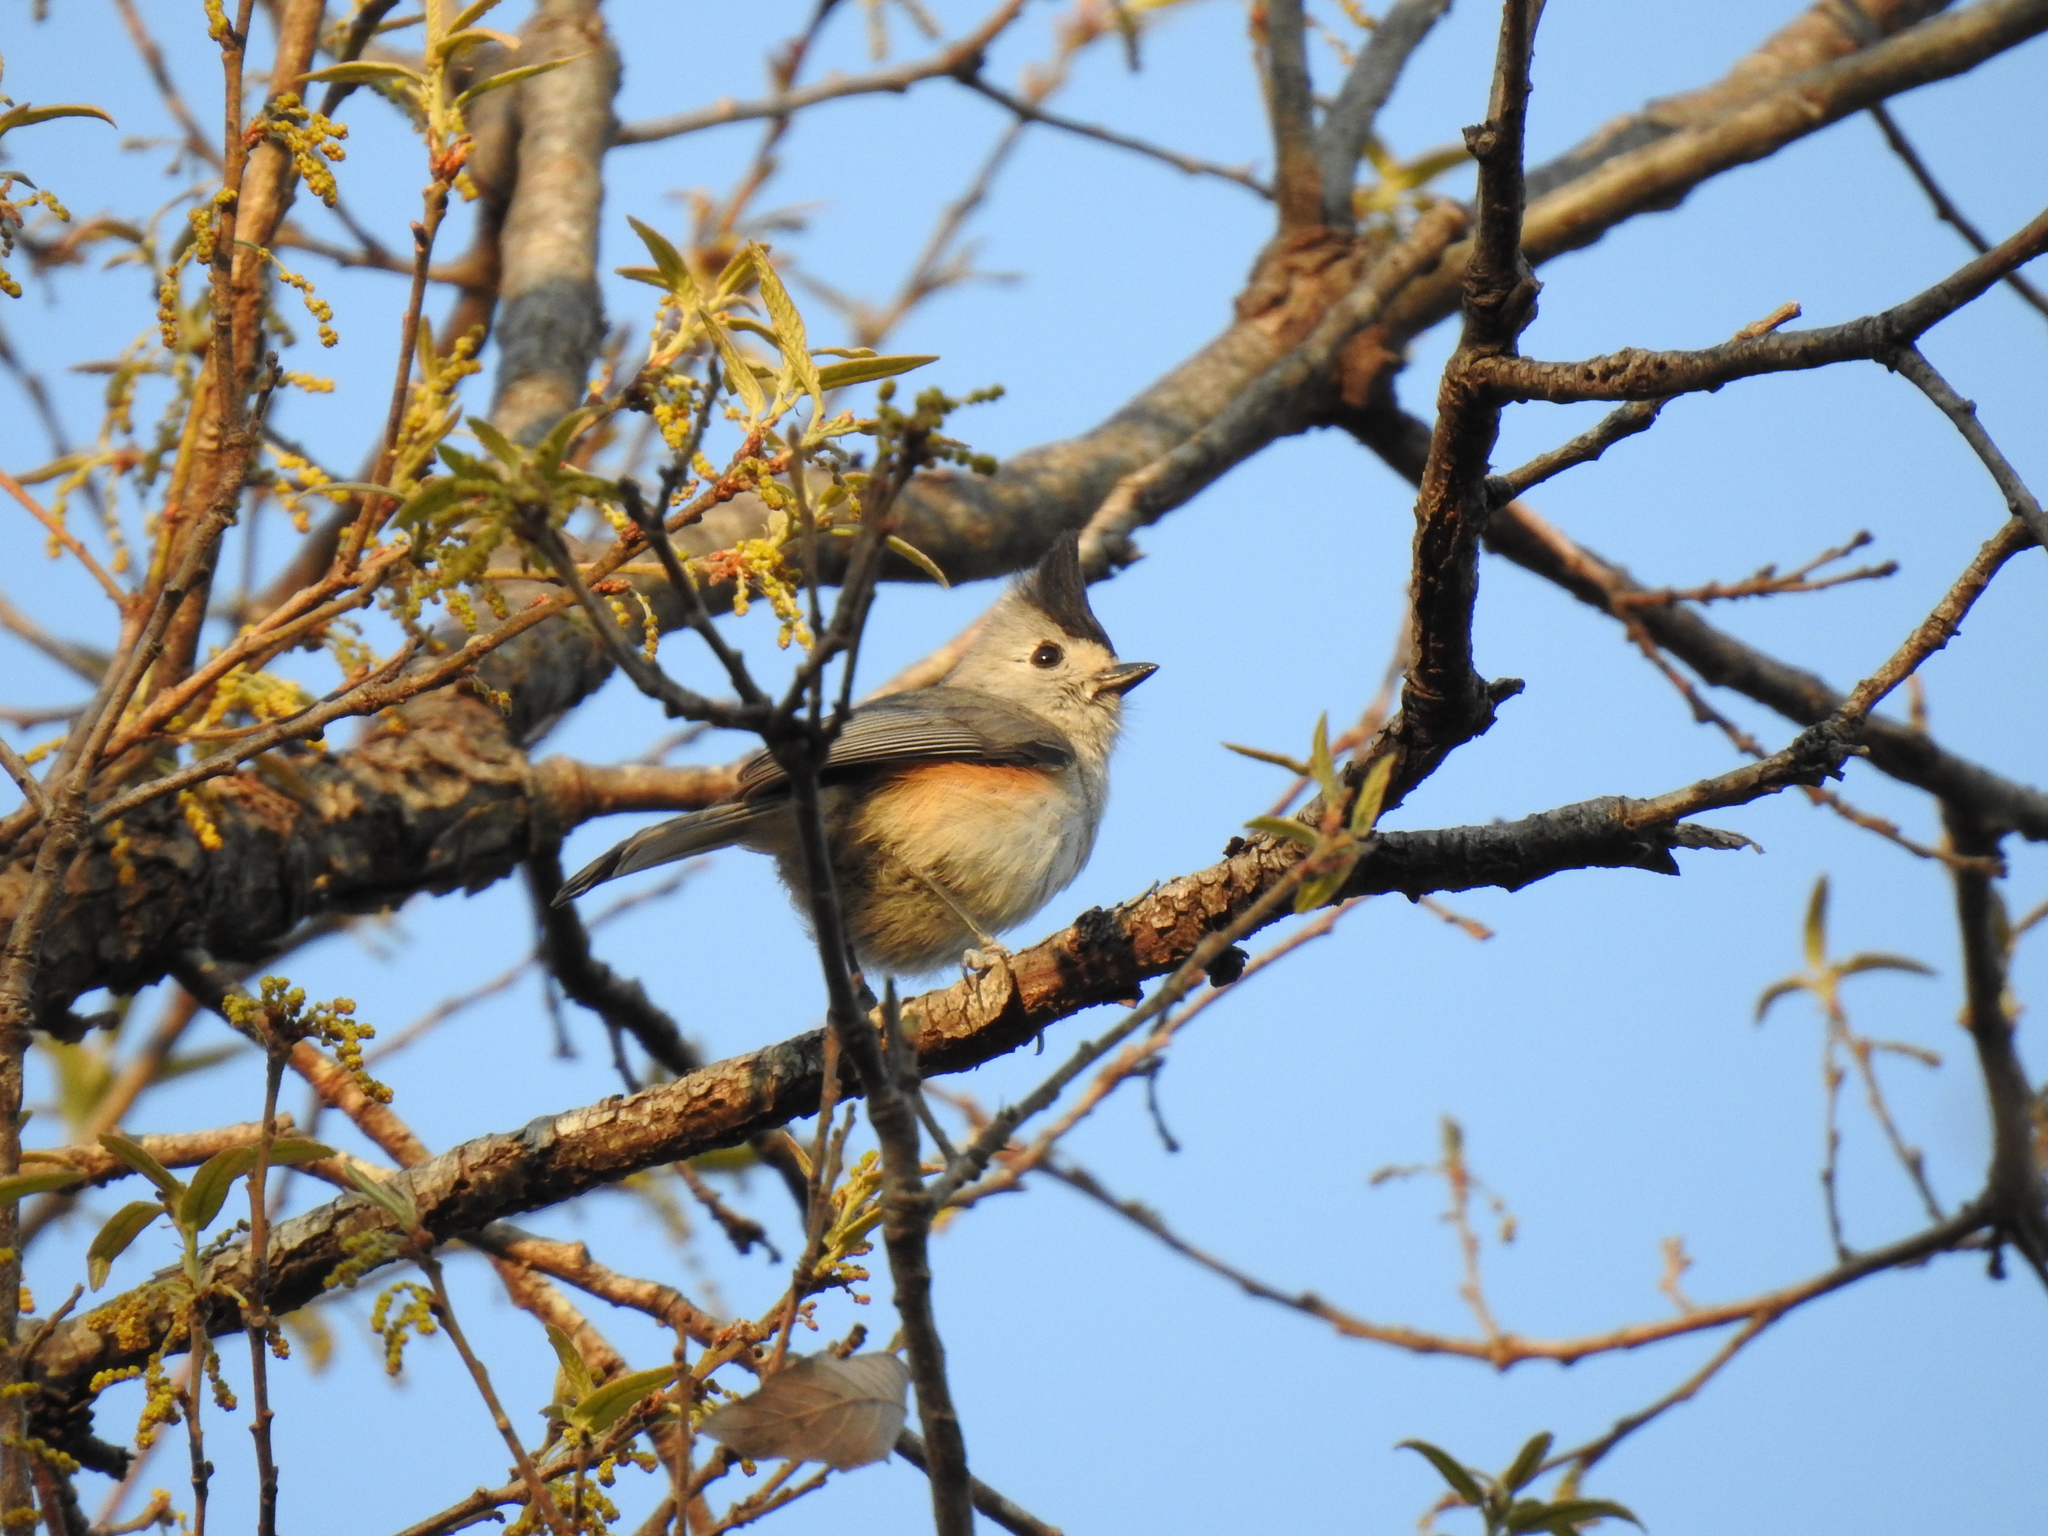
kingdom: Animalia
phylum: Chordata
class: Aves
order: Passeriformes
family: Paridae
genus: Baeolophus
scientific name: Baeolophus atricristatus
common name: Black-crested titmouse
